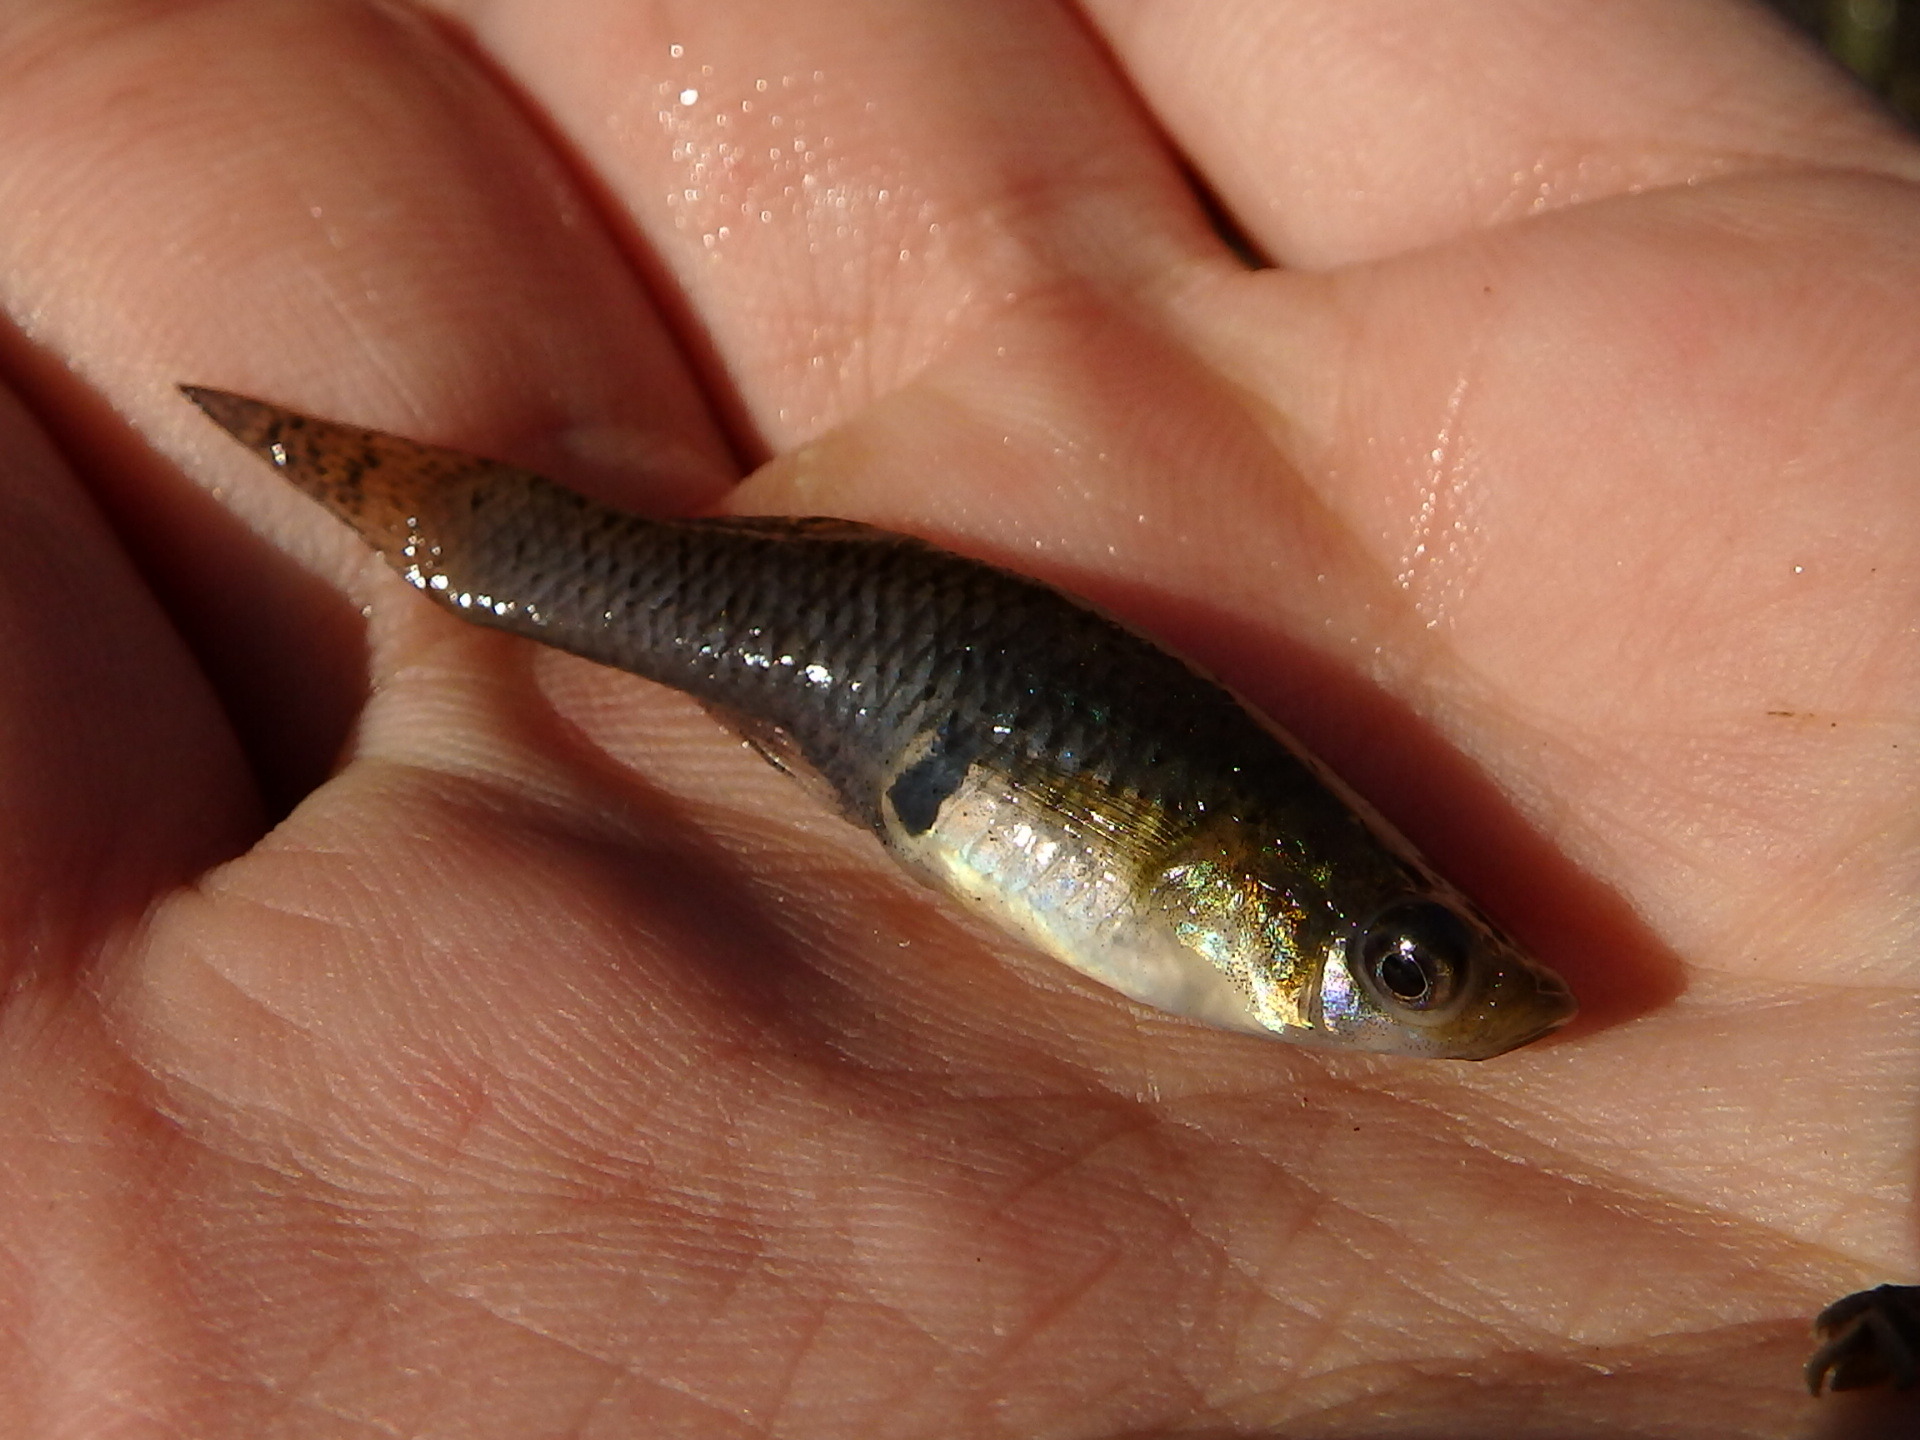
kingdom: Animalia
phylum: Chordata
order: Cyprinodontiformes
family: Poeciliidae
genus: Gambusia
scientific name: Gambusia holbrooki
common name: Eastern mosquitofish
